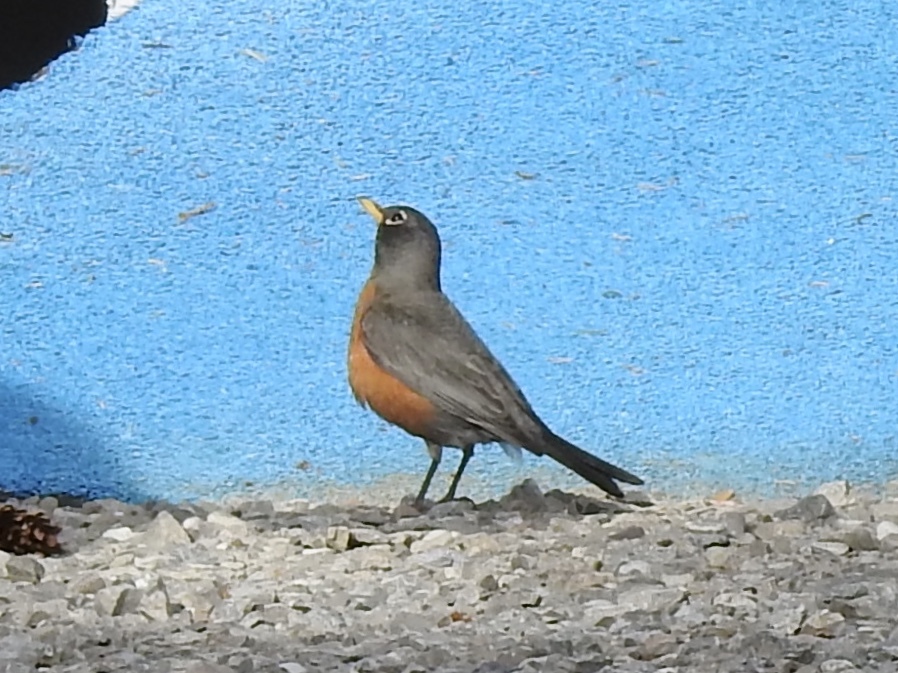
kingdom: Animalia
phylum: Chordata
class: Aves
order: Passeriformes
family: Turdidae
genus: Turdus
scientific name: Turdus migratorius
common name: American robin
